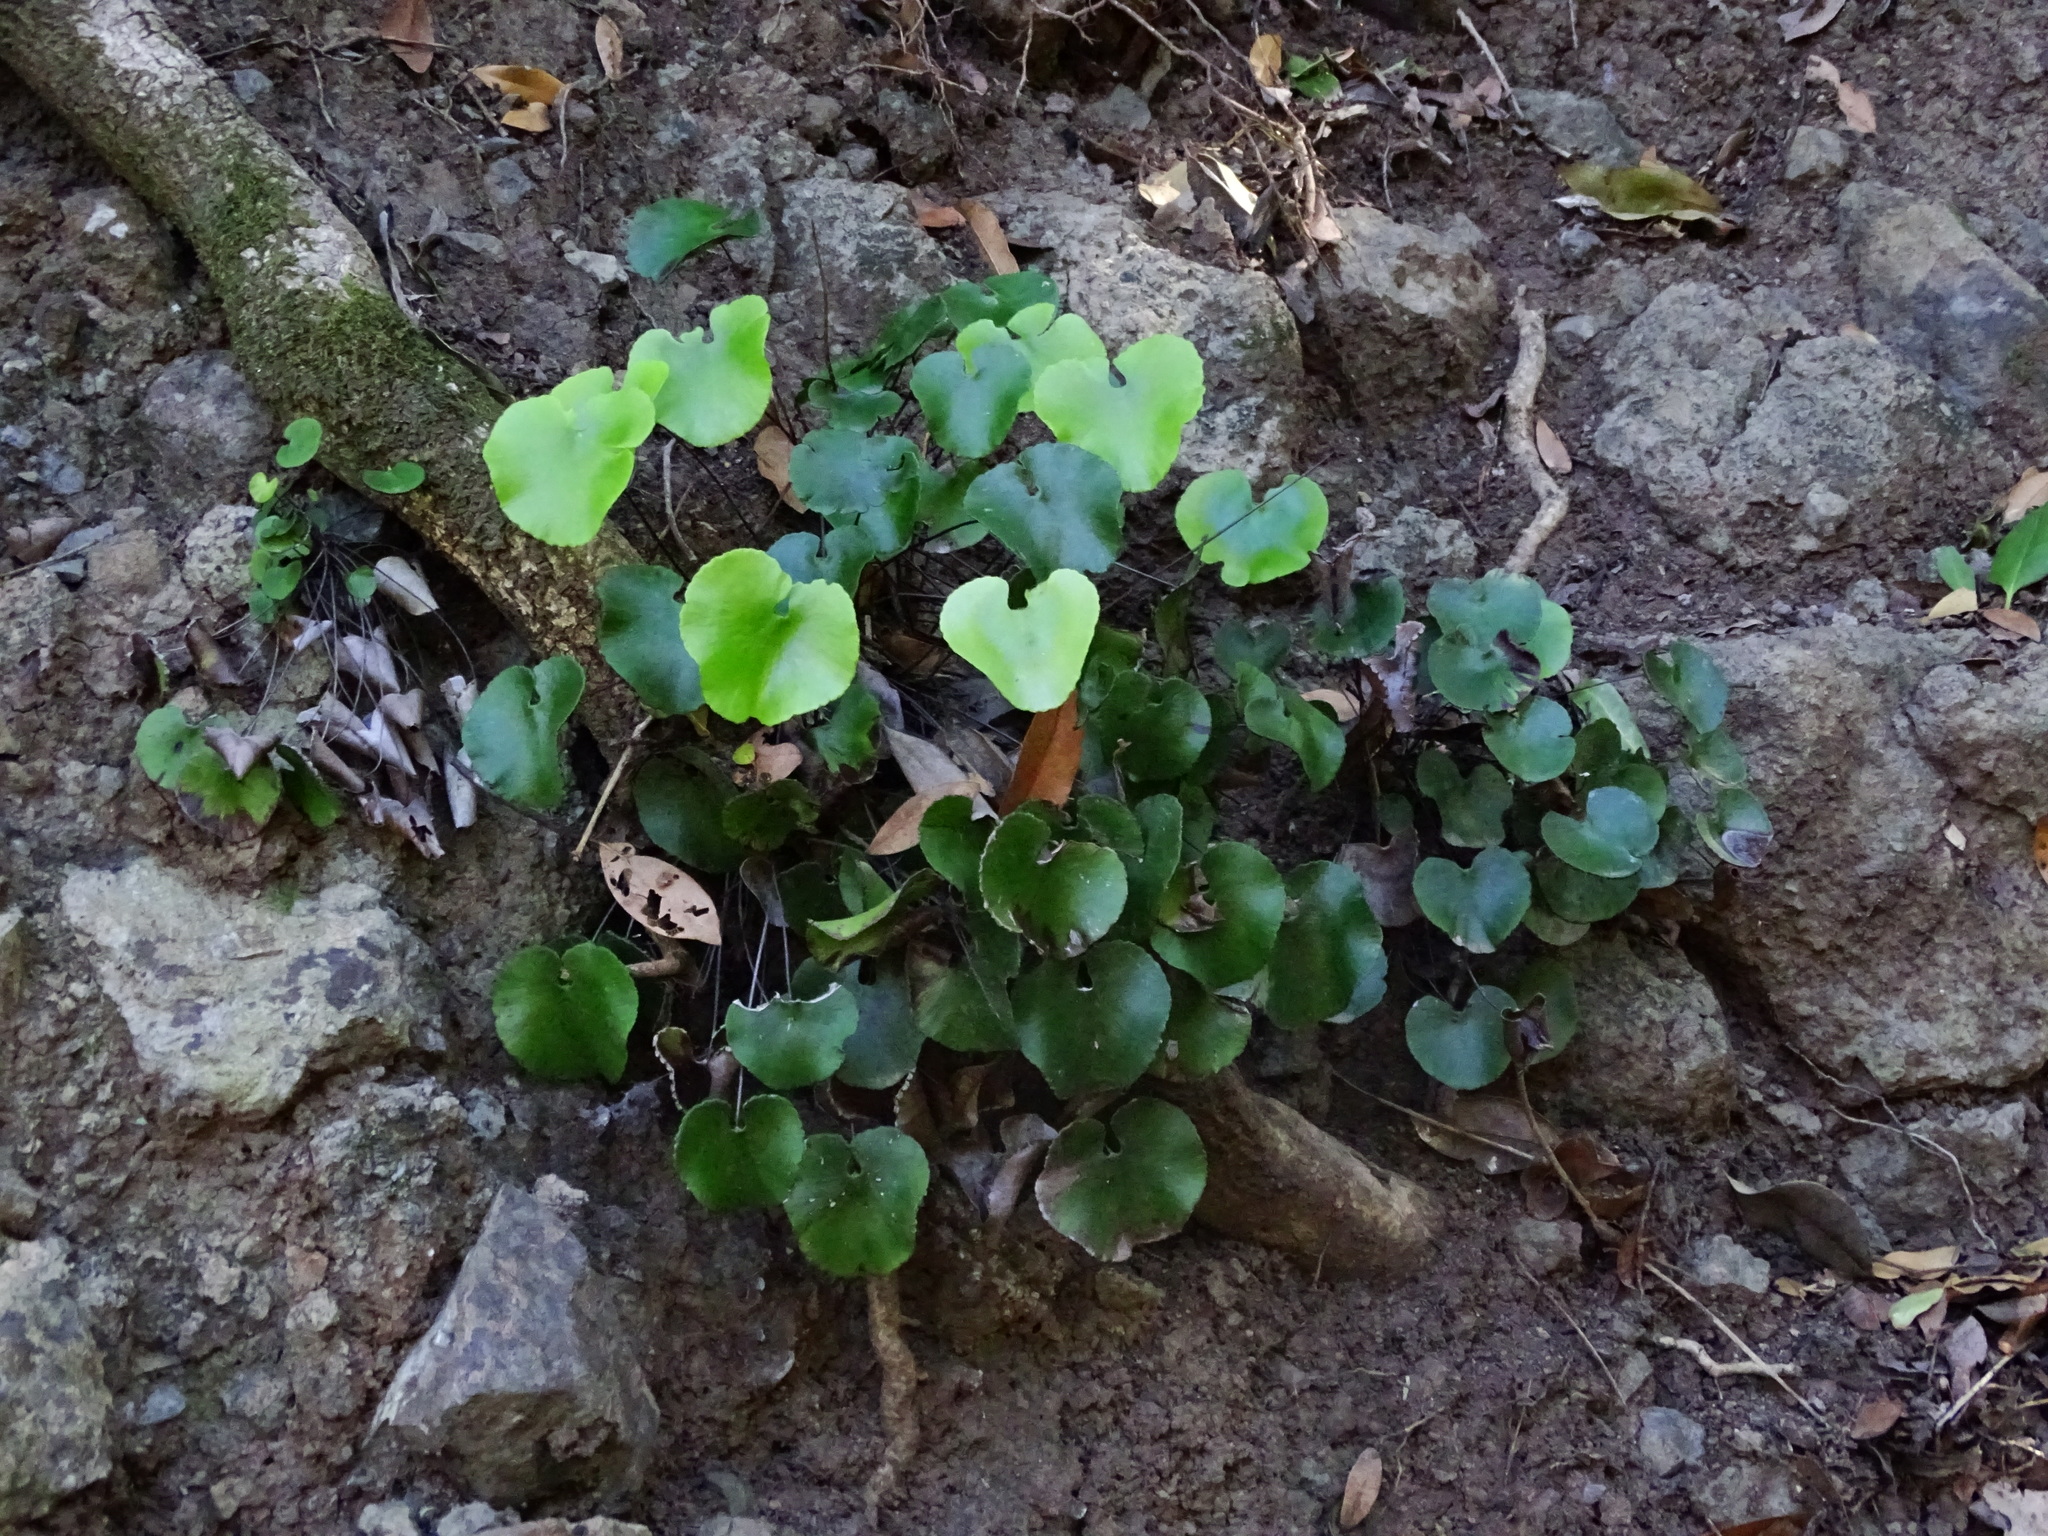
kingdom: Plantae
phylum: Tracheophyta
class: Polypodiopsida
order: Polypodiales
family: Pteridaceae
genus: Adiantum
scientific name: Adiantum reniforme
